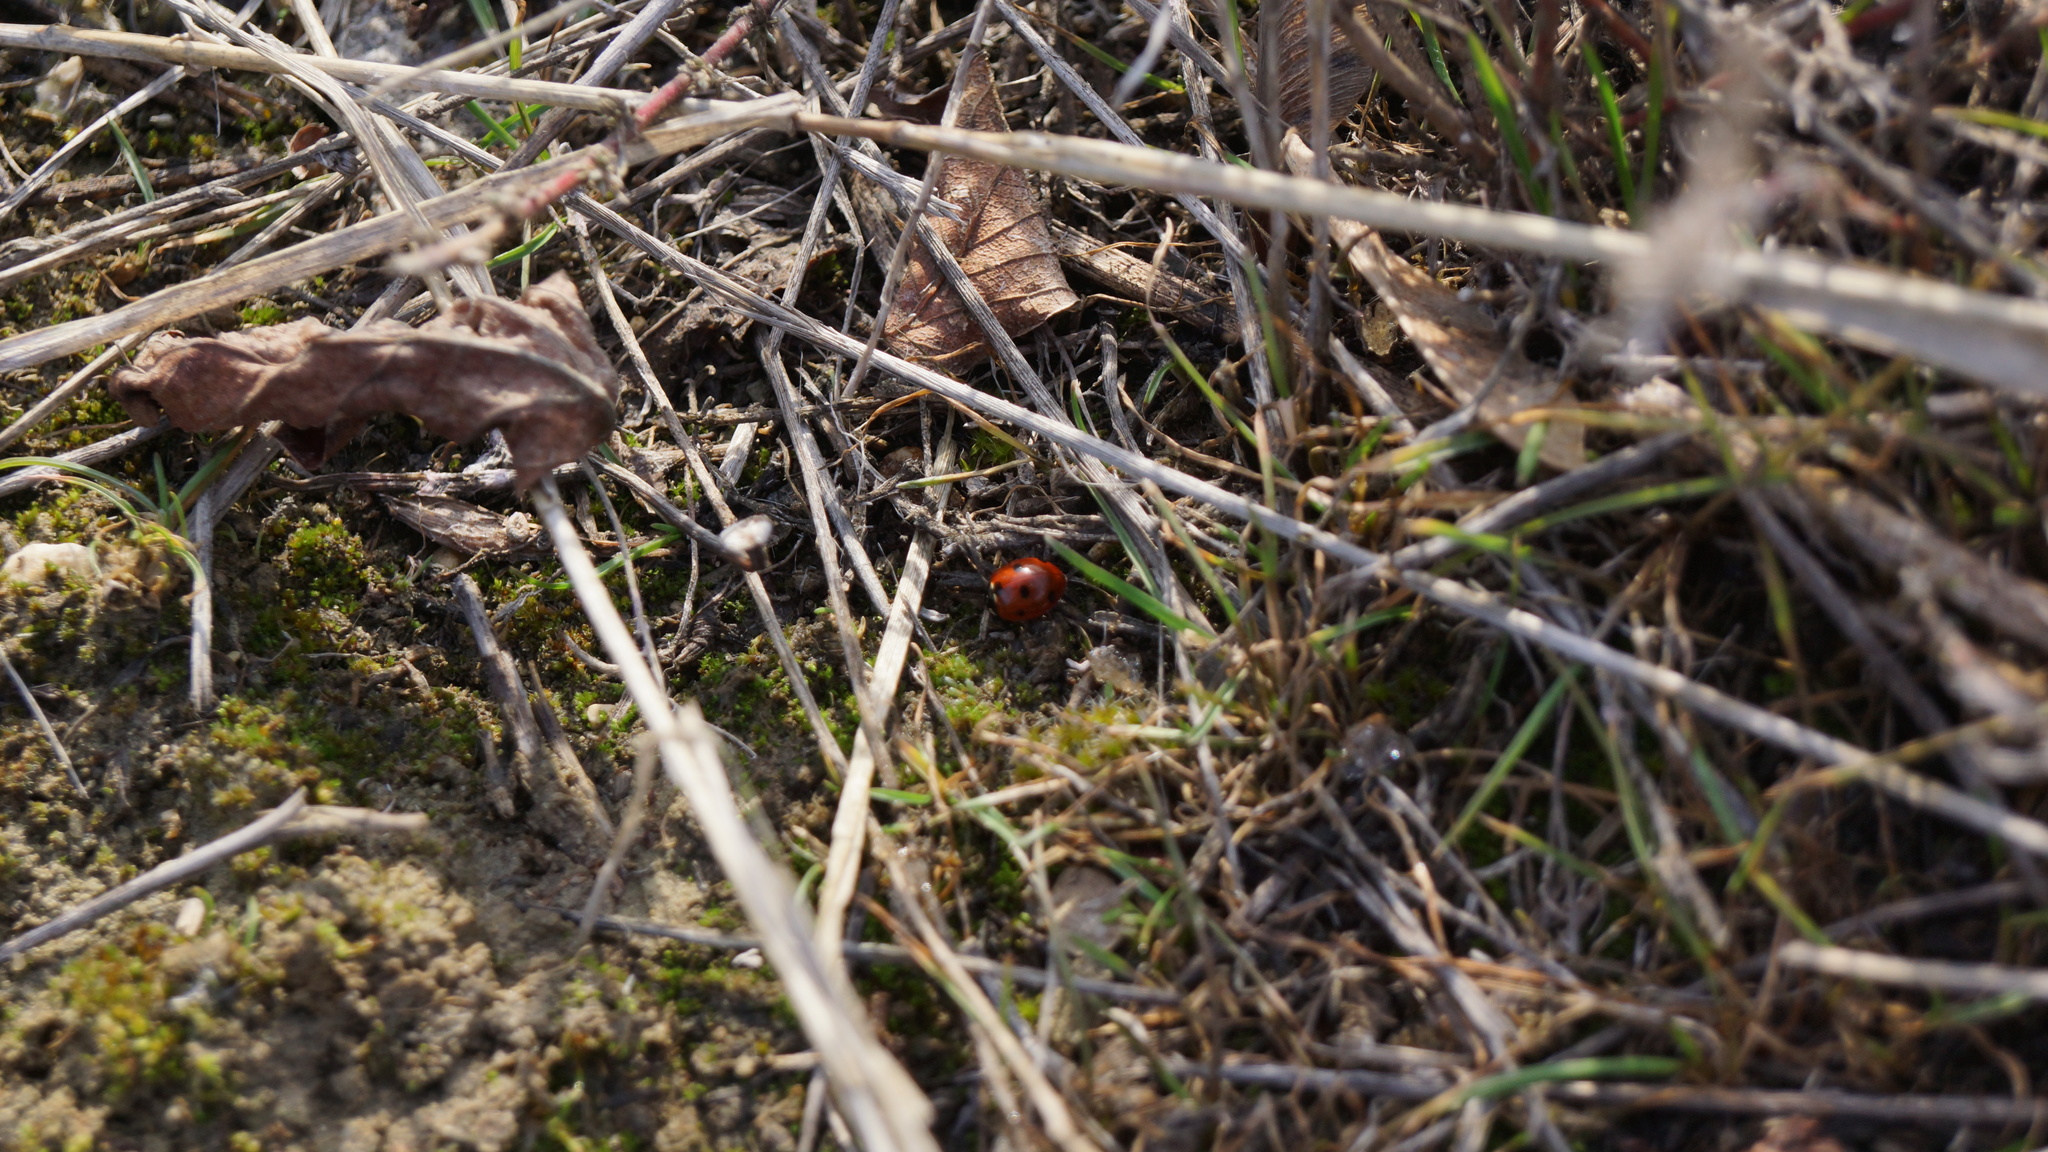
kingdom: Animalia
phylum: Arthropoda
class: Insecta
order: Coleoptera
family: Coccinellidae
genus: Coccinella
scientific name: Coccinella septempunctata
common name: Sevenspotted lady beetle
